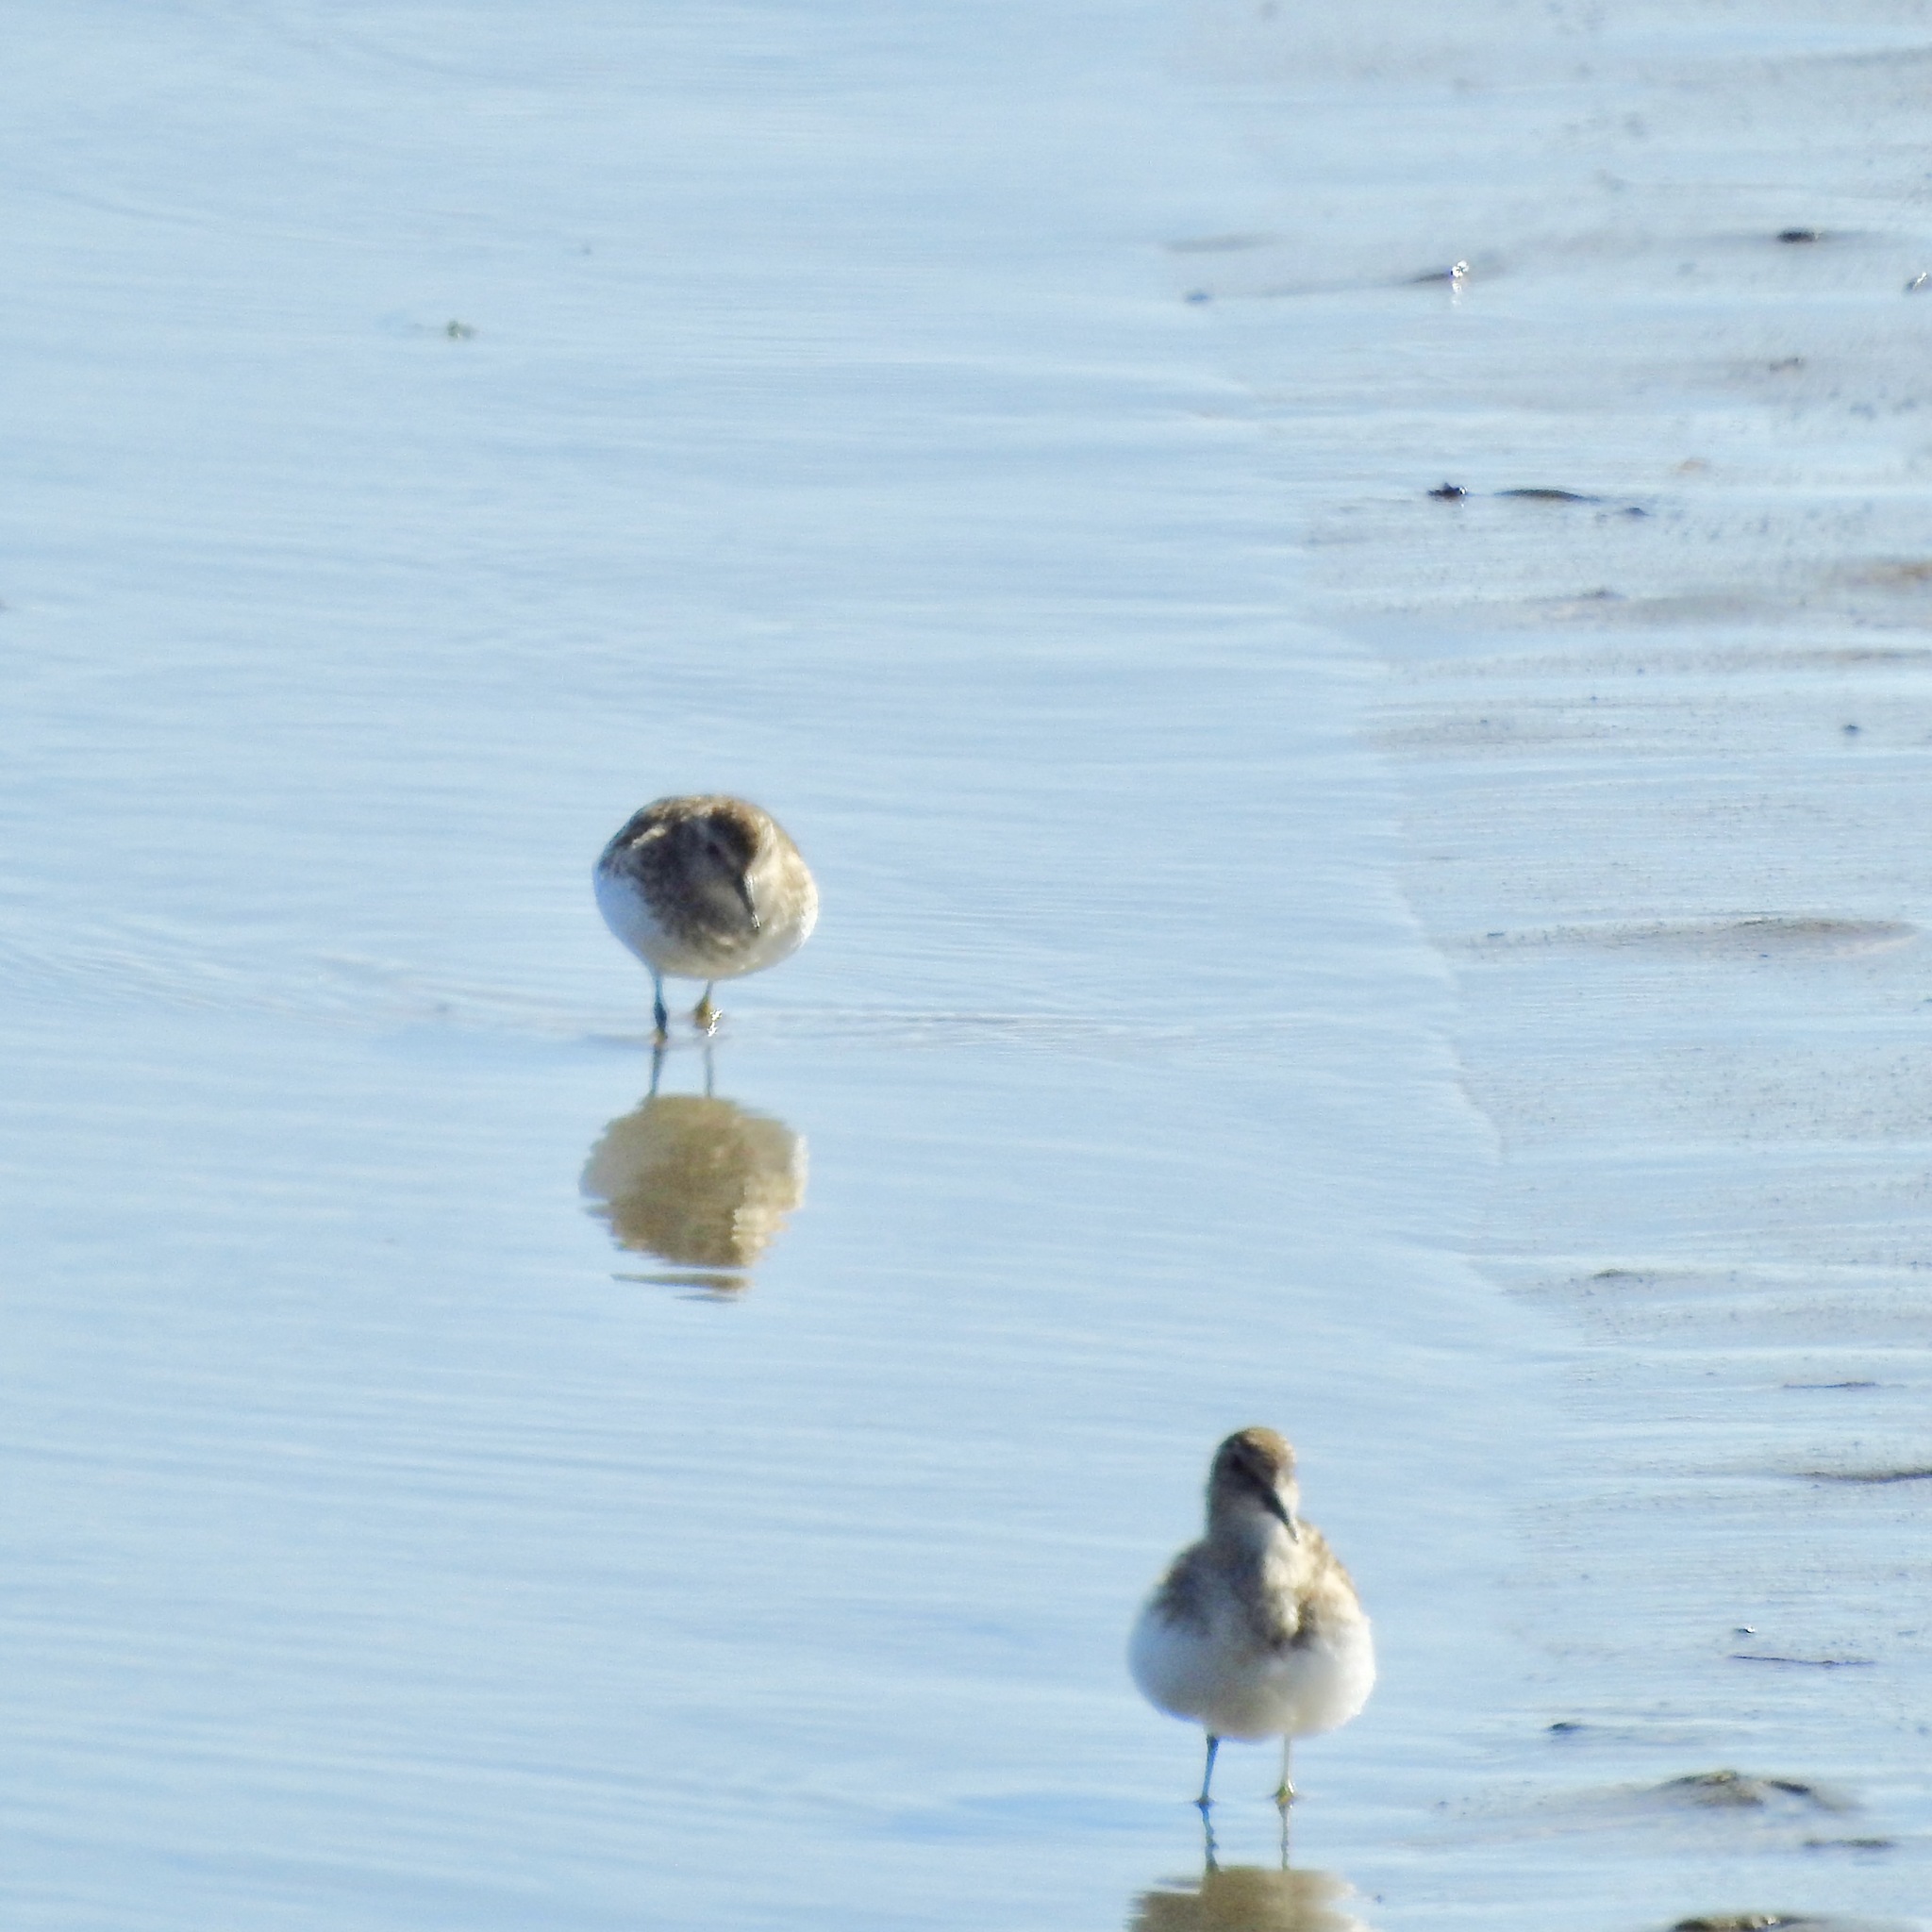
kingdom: Animalia
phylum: Chordata
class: Aves
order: Charadriiformes
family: Scolopacidae
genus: Calidris
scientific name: Calidris minutilla
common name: Least sandpiper
